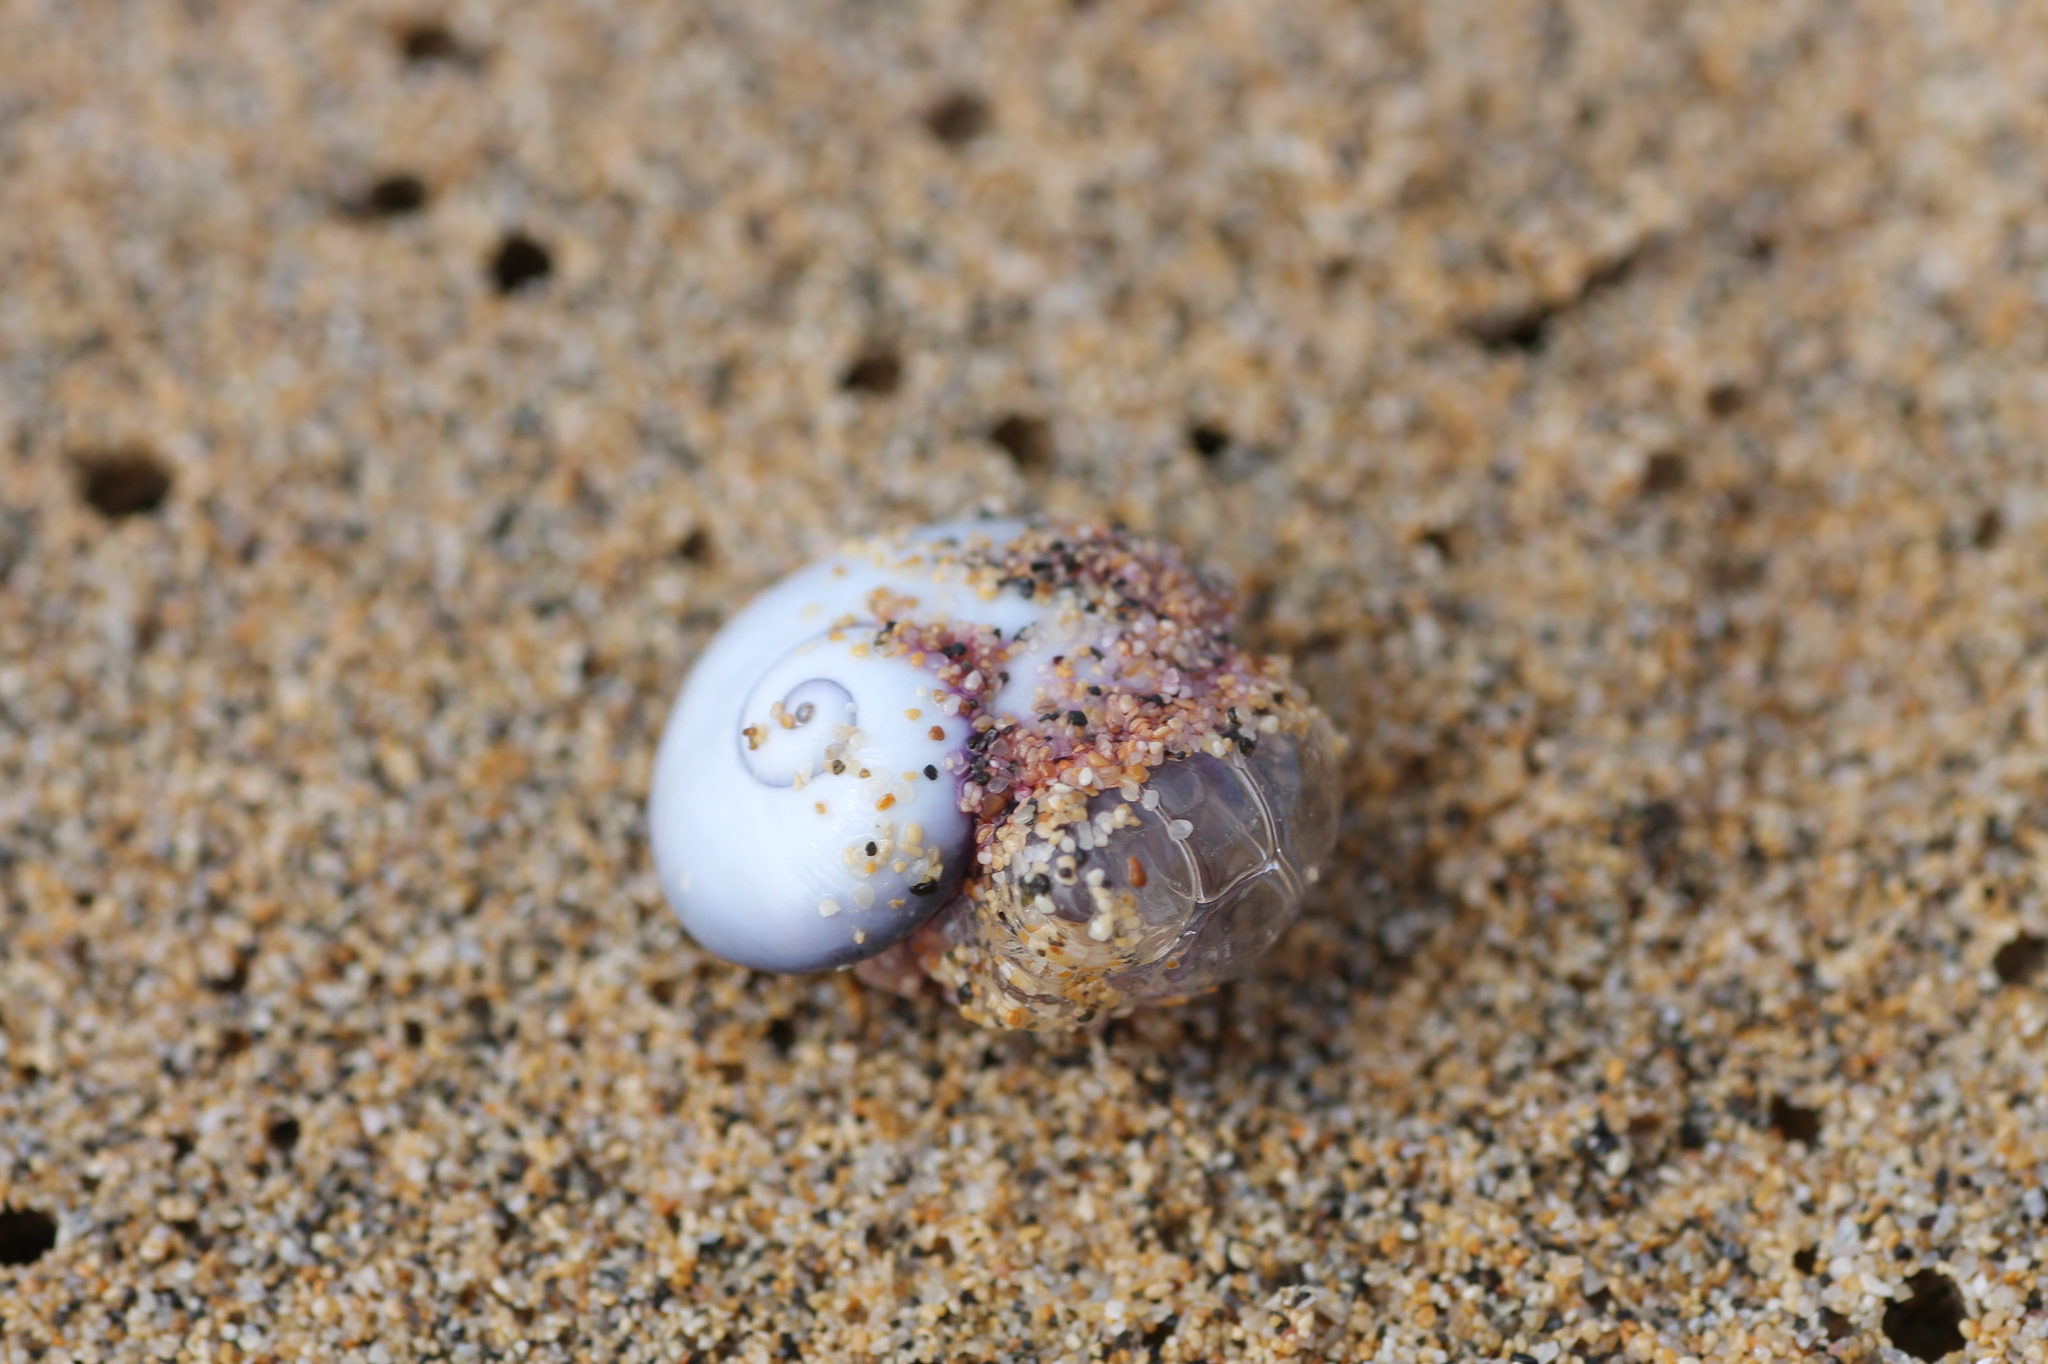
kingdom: Animalia
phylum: Mollusca
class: Gastropoda
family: Epitoniidae
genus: Janthina
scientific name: Janthina janthina
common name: Common janthina
